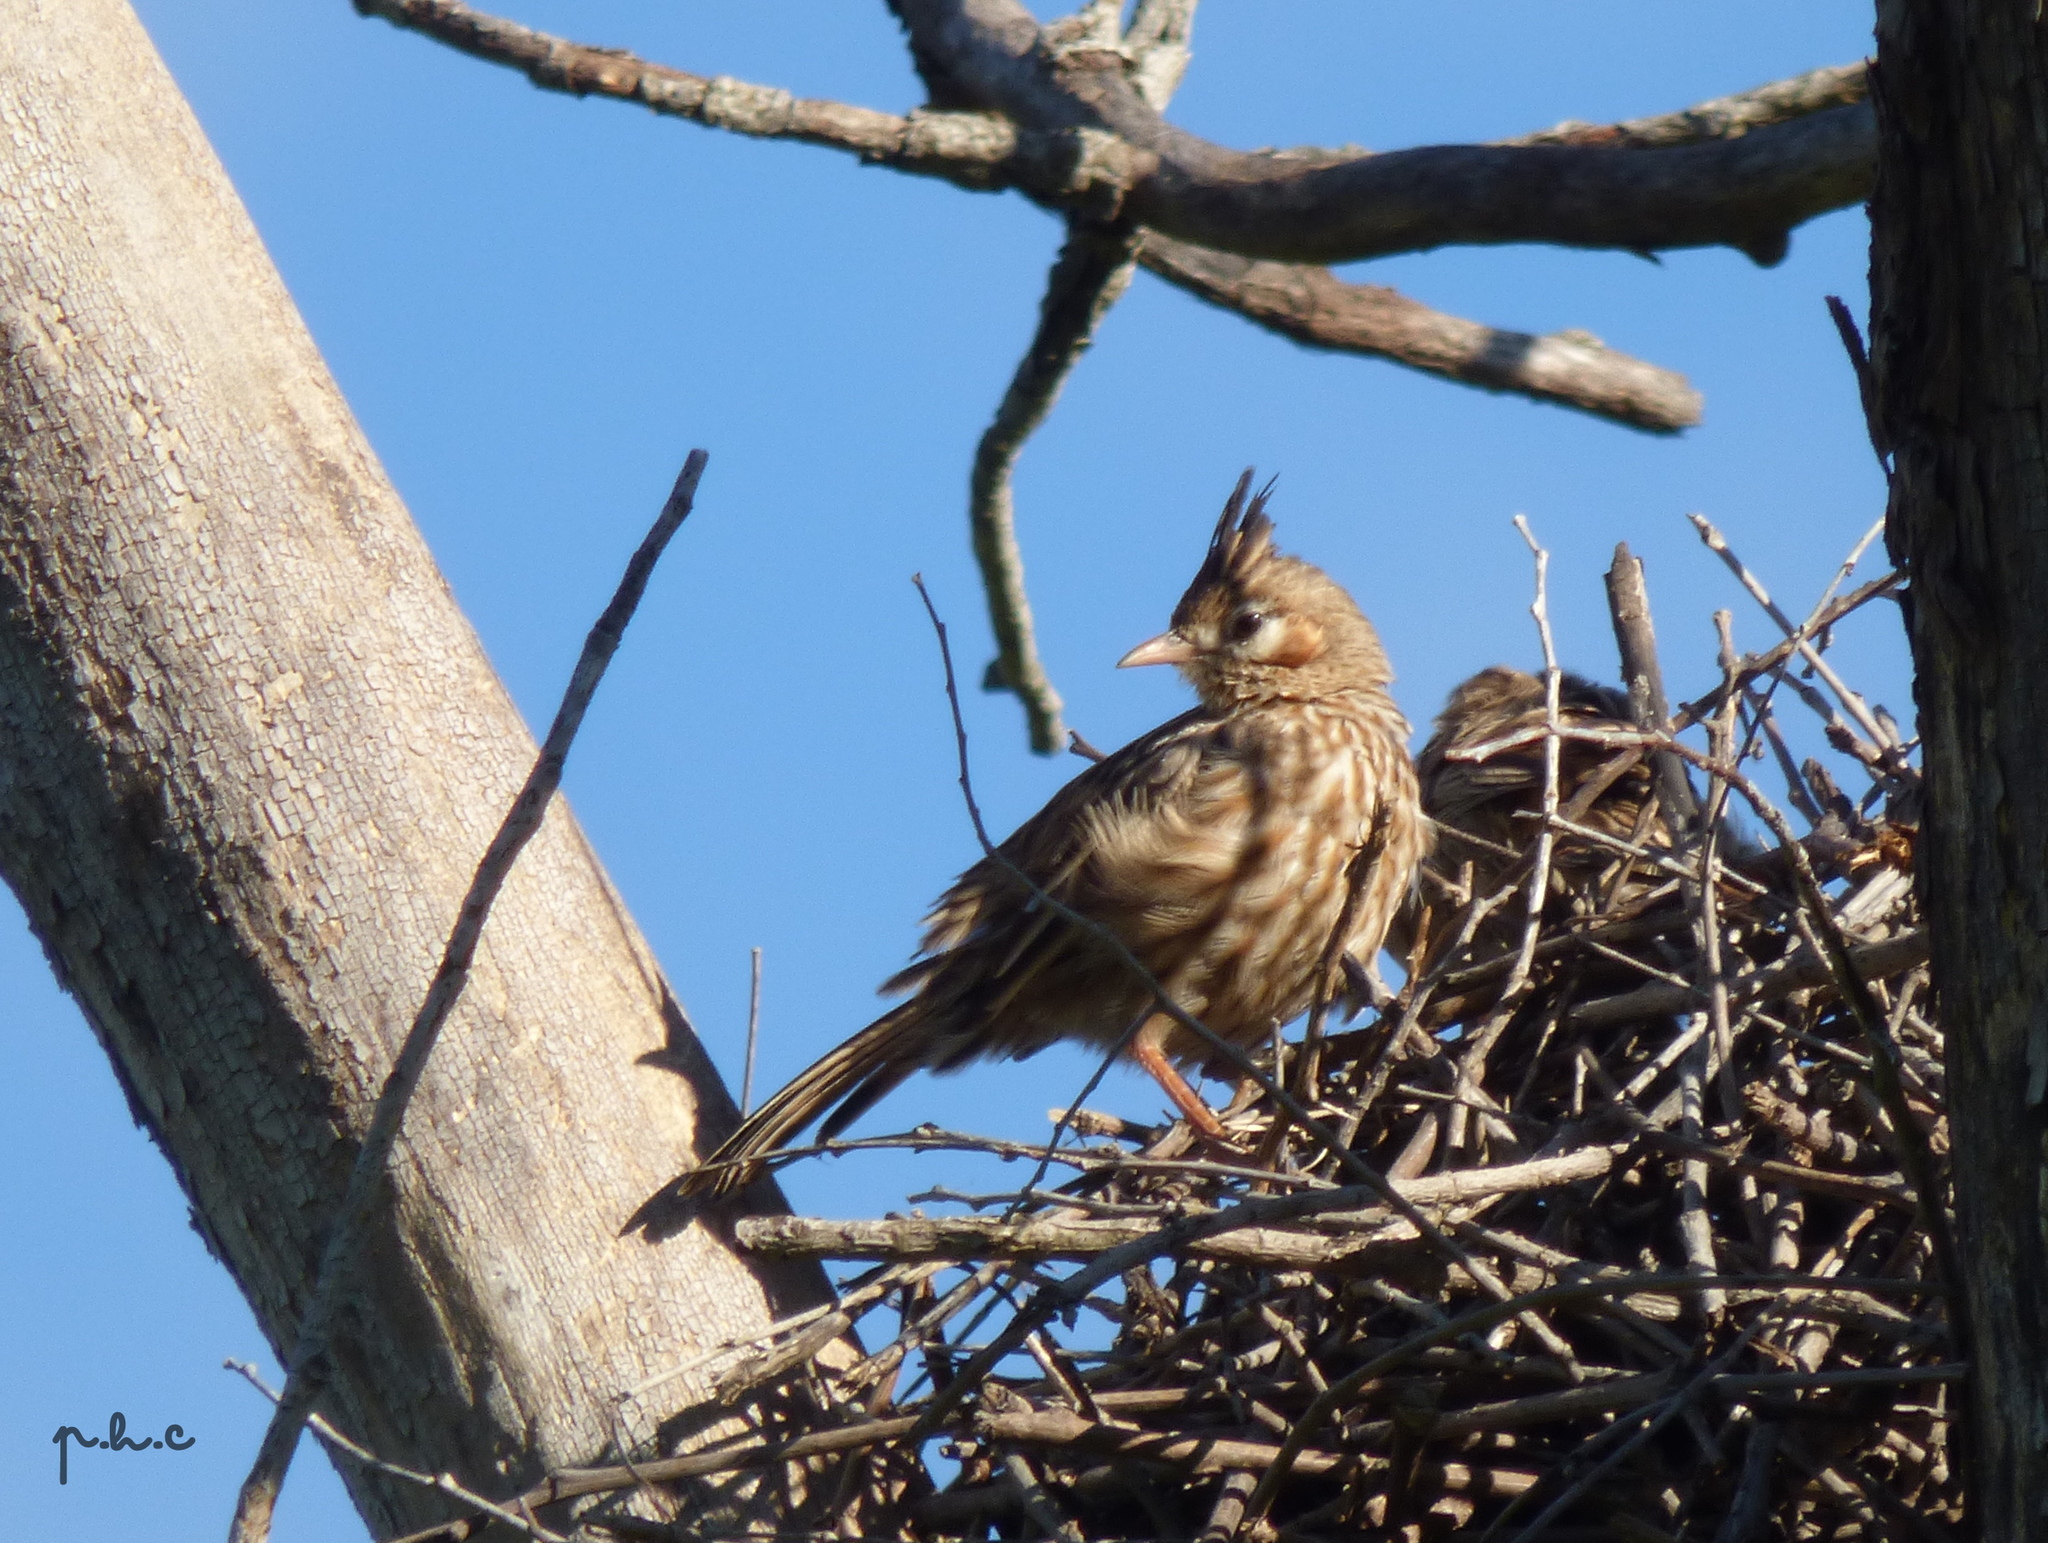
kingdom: Animalia
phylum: Chordata
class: Aves
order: Passeriformes
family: Furnariidae
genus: Coryphistera
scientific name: Coryphistera alaudina
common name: Lark-like brushrunner
